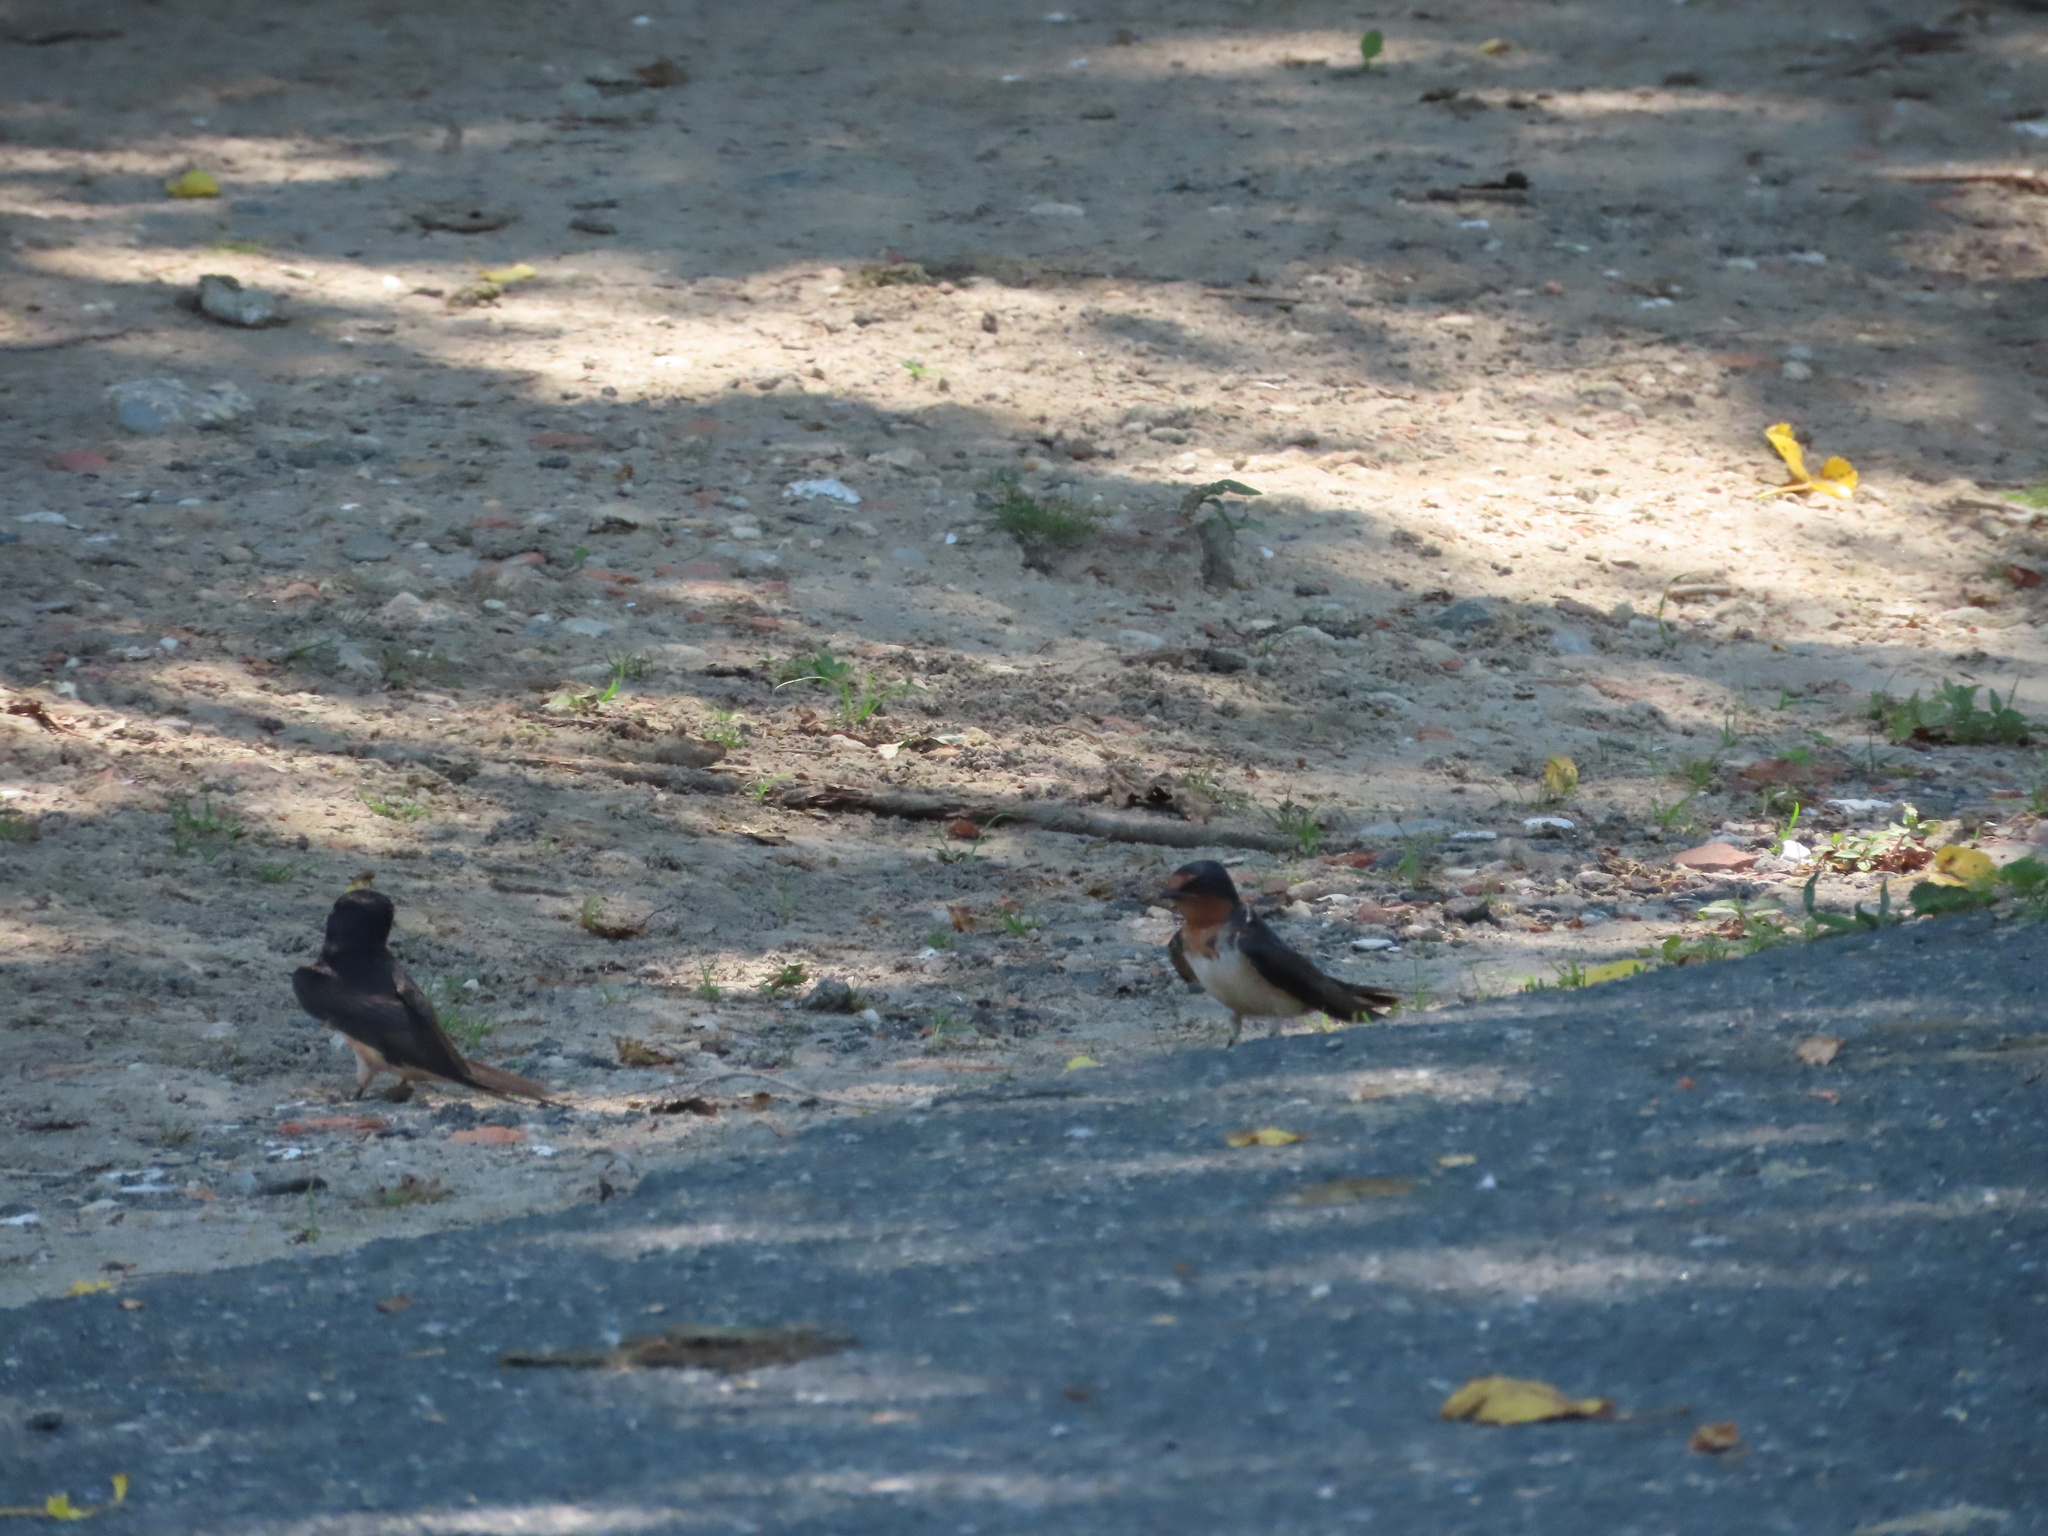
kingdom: Animalia
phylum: Chordata
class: Aves
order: Passeriformes
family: Hirundinidae
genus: Hirundo
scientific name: Hirundo rustica
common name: Barn swallow
